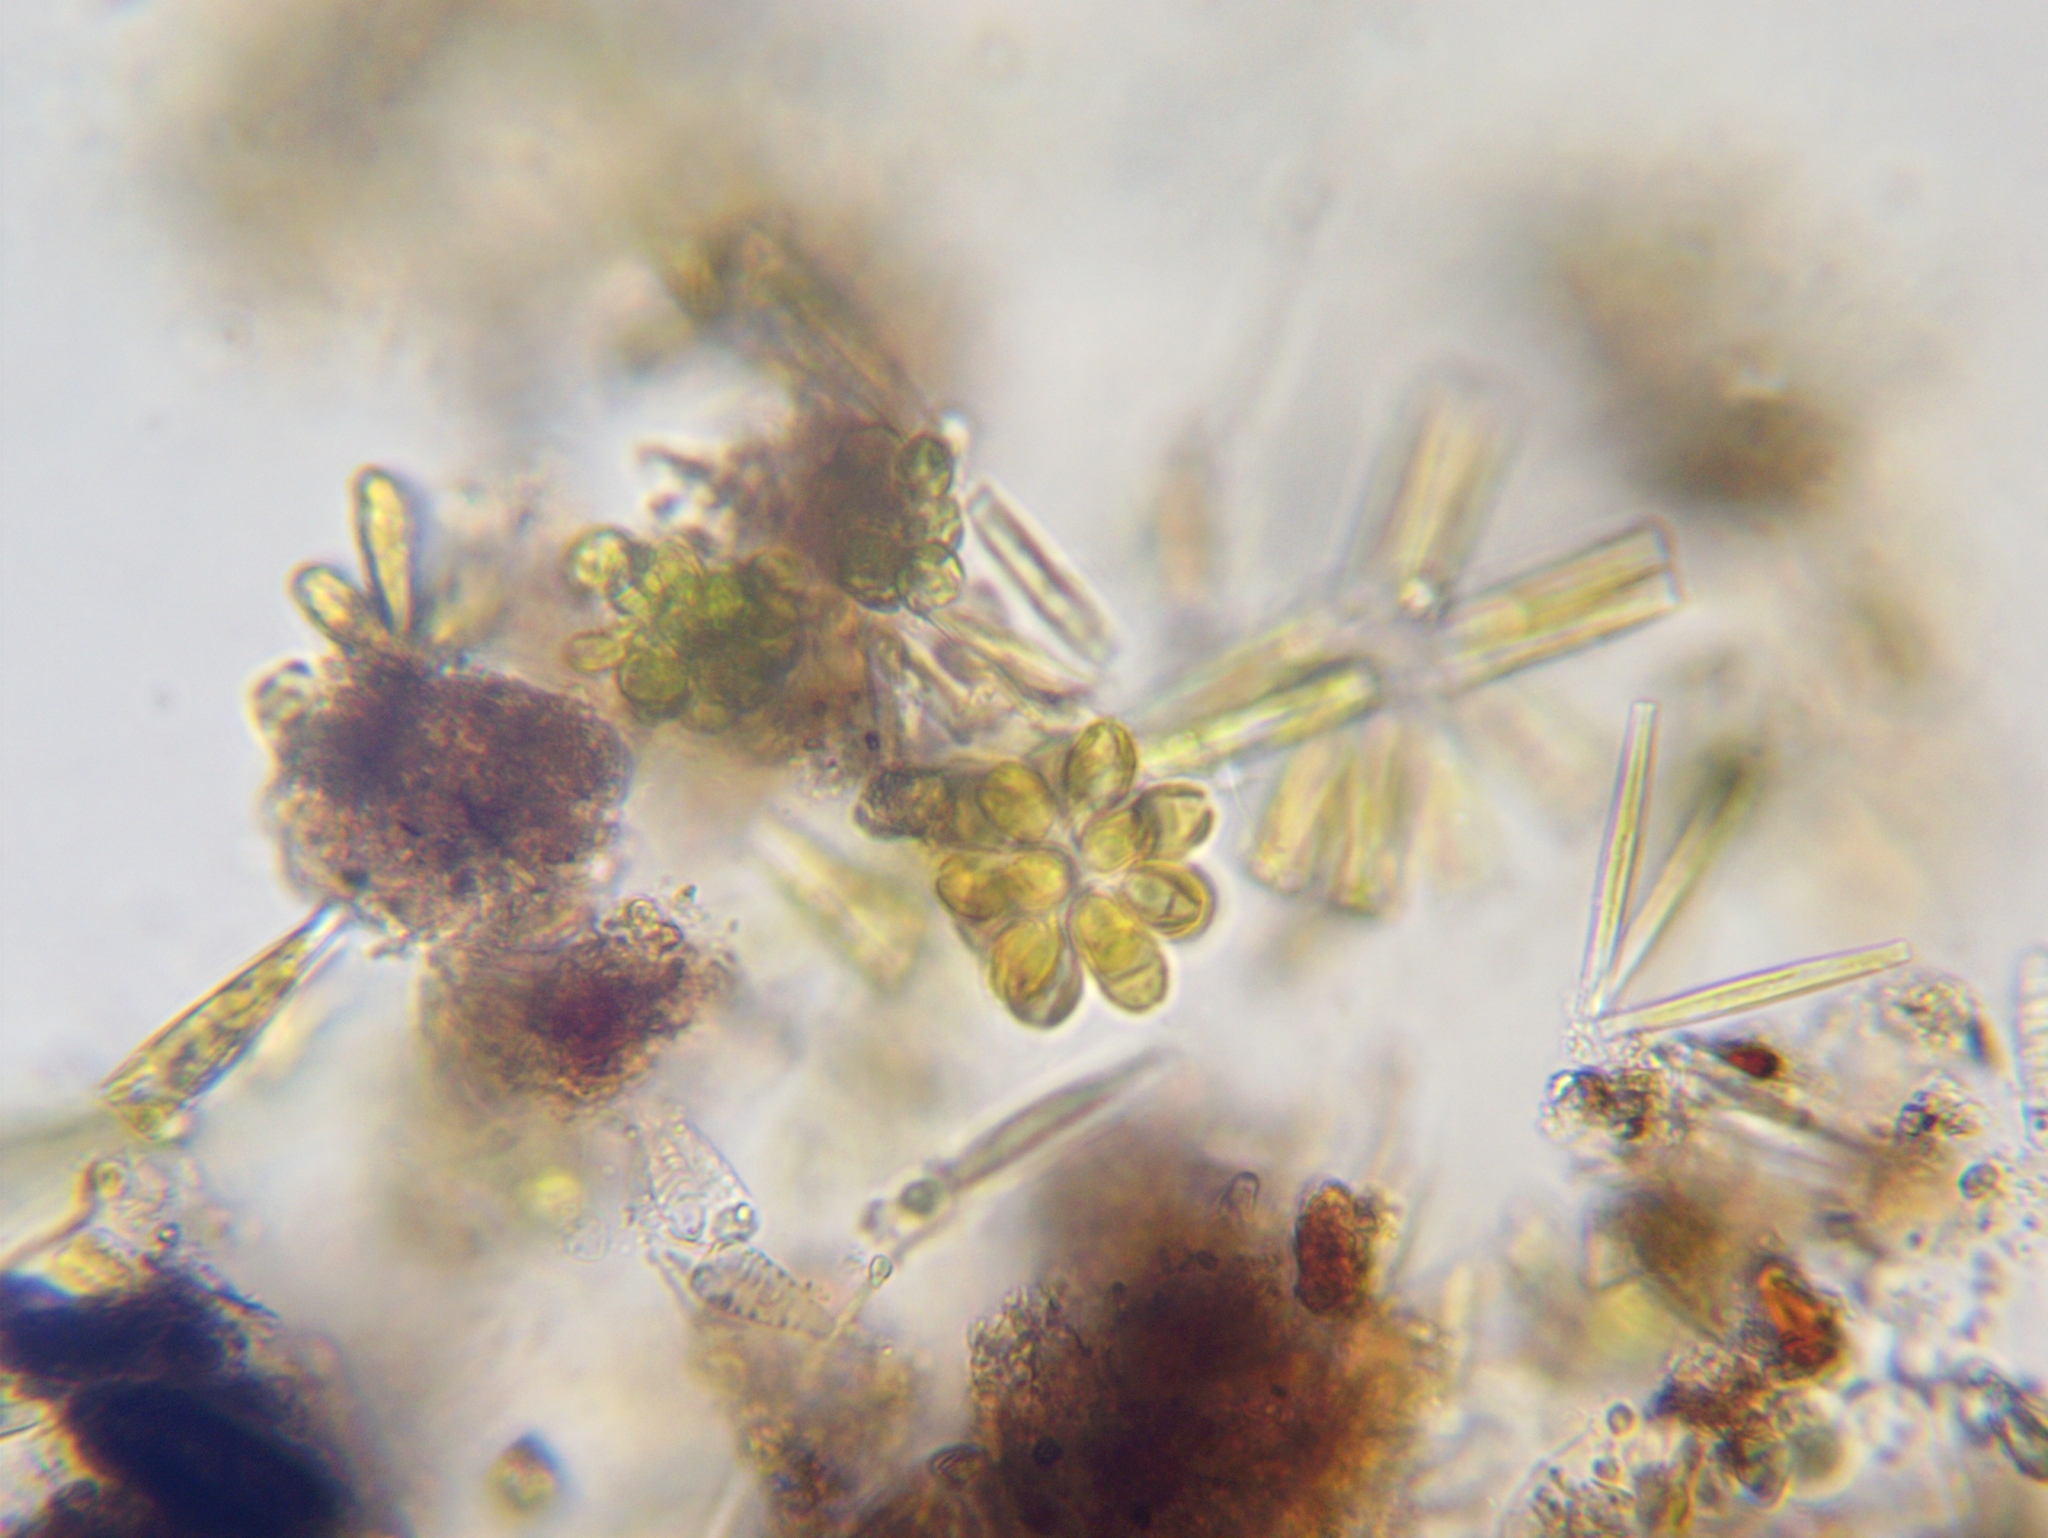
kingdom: Chromista
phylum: Ochrophyta
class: Synurophyceae
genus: Synura
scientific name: Synura
